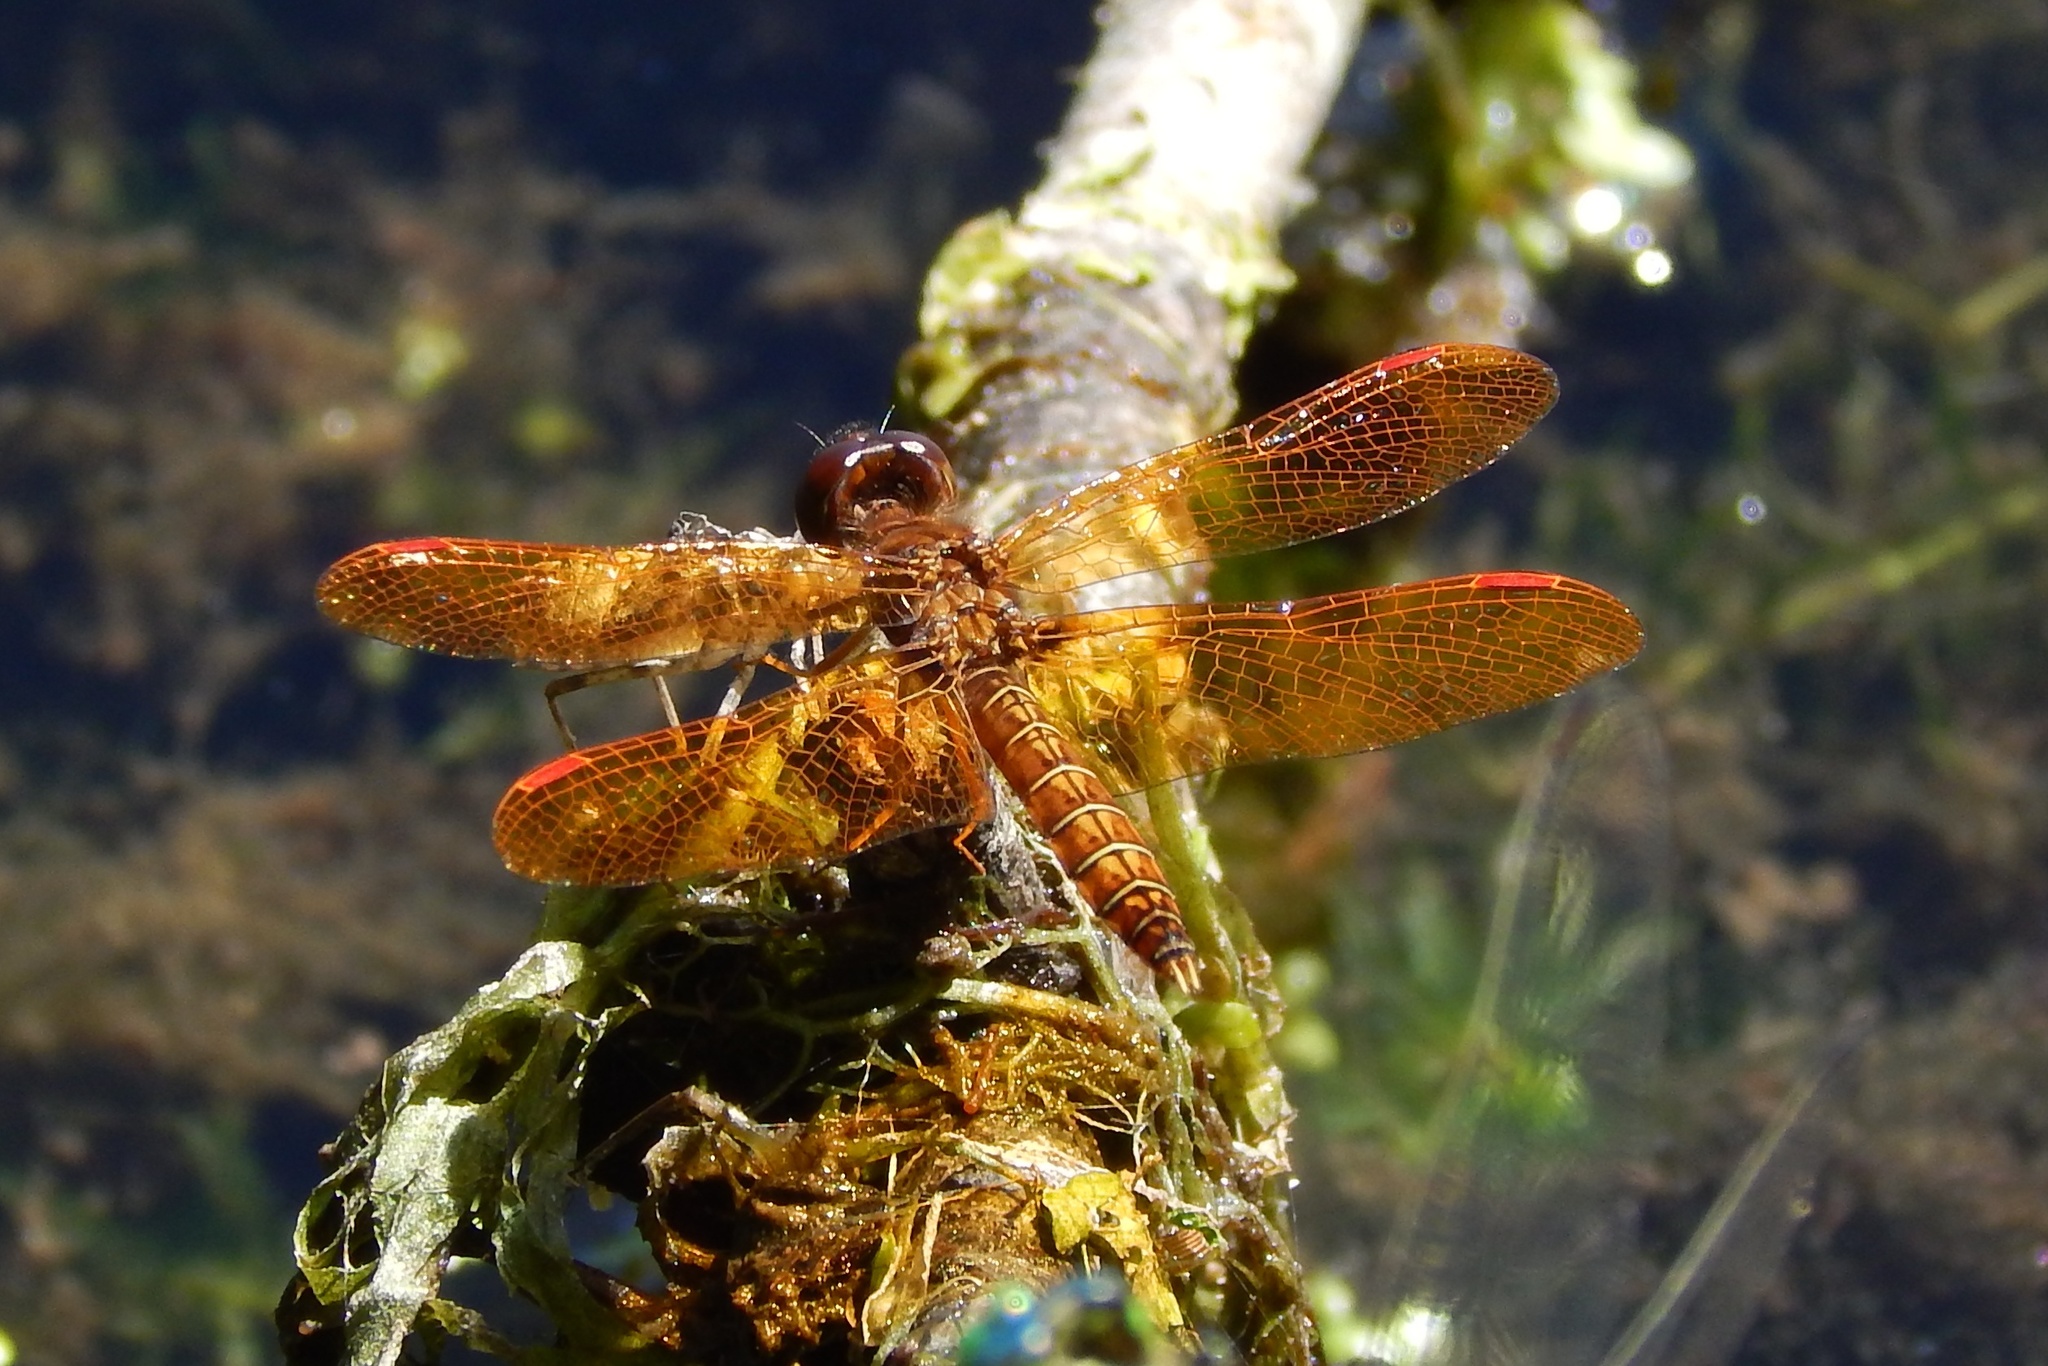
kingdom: Animalia
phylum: Arthropoda
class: Insecta
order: Odonata
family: Libellulidae
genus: Perithemis
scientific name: Perithemis tenera
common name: Eastern amberwing
